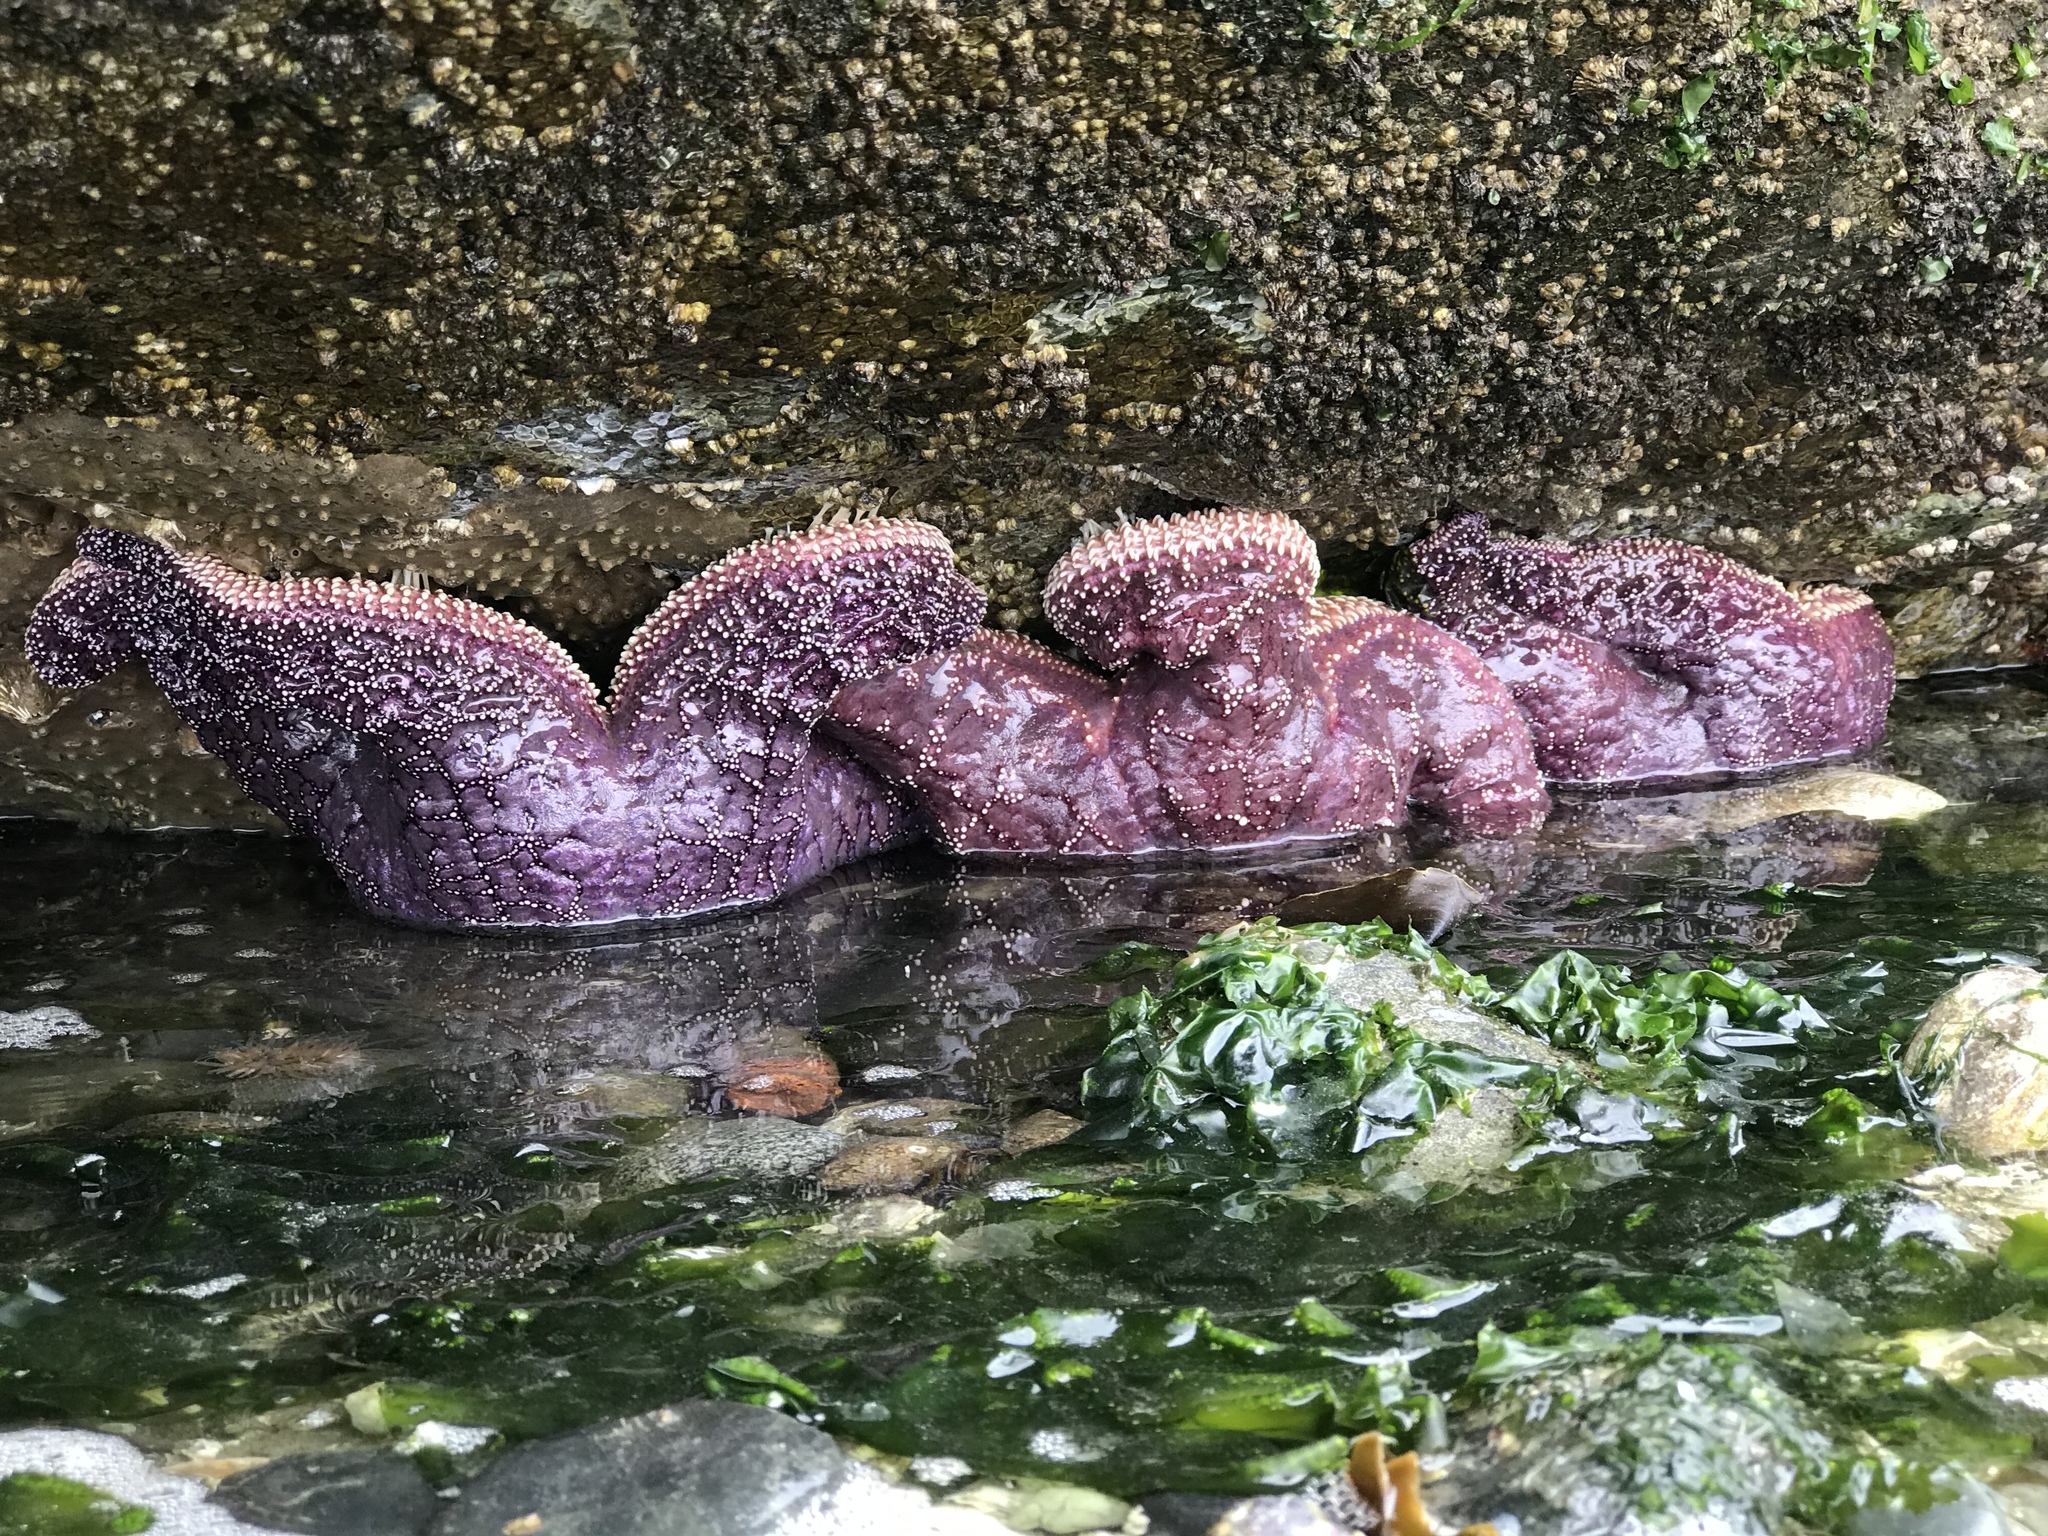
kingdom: Animalia
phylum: Echinodermata
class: Asteroidea
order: Forcipulatida
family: Asteriidae
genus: Pisaster
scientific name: Pisaster ochraceus
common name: Ochre stars
